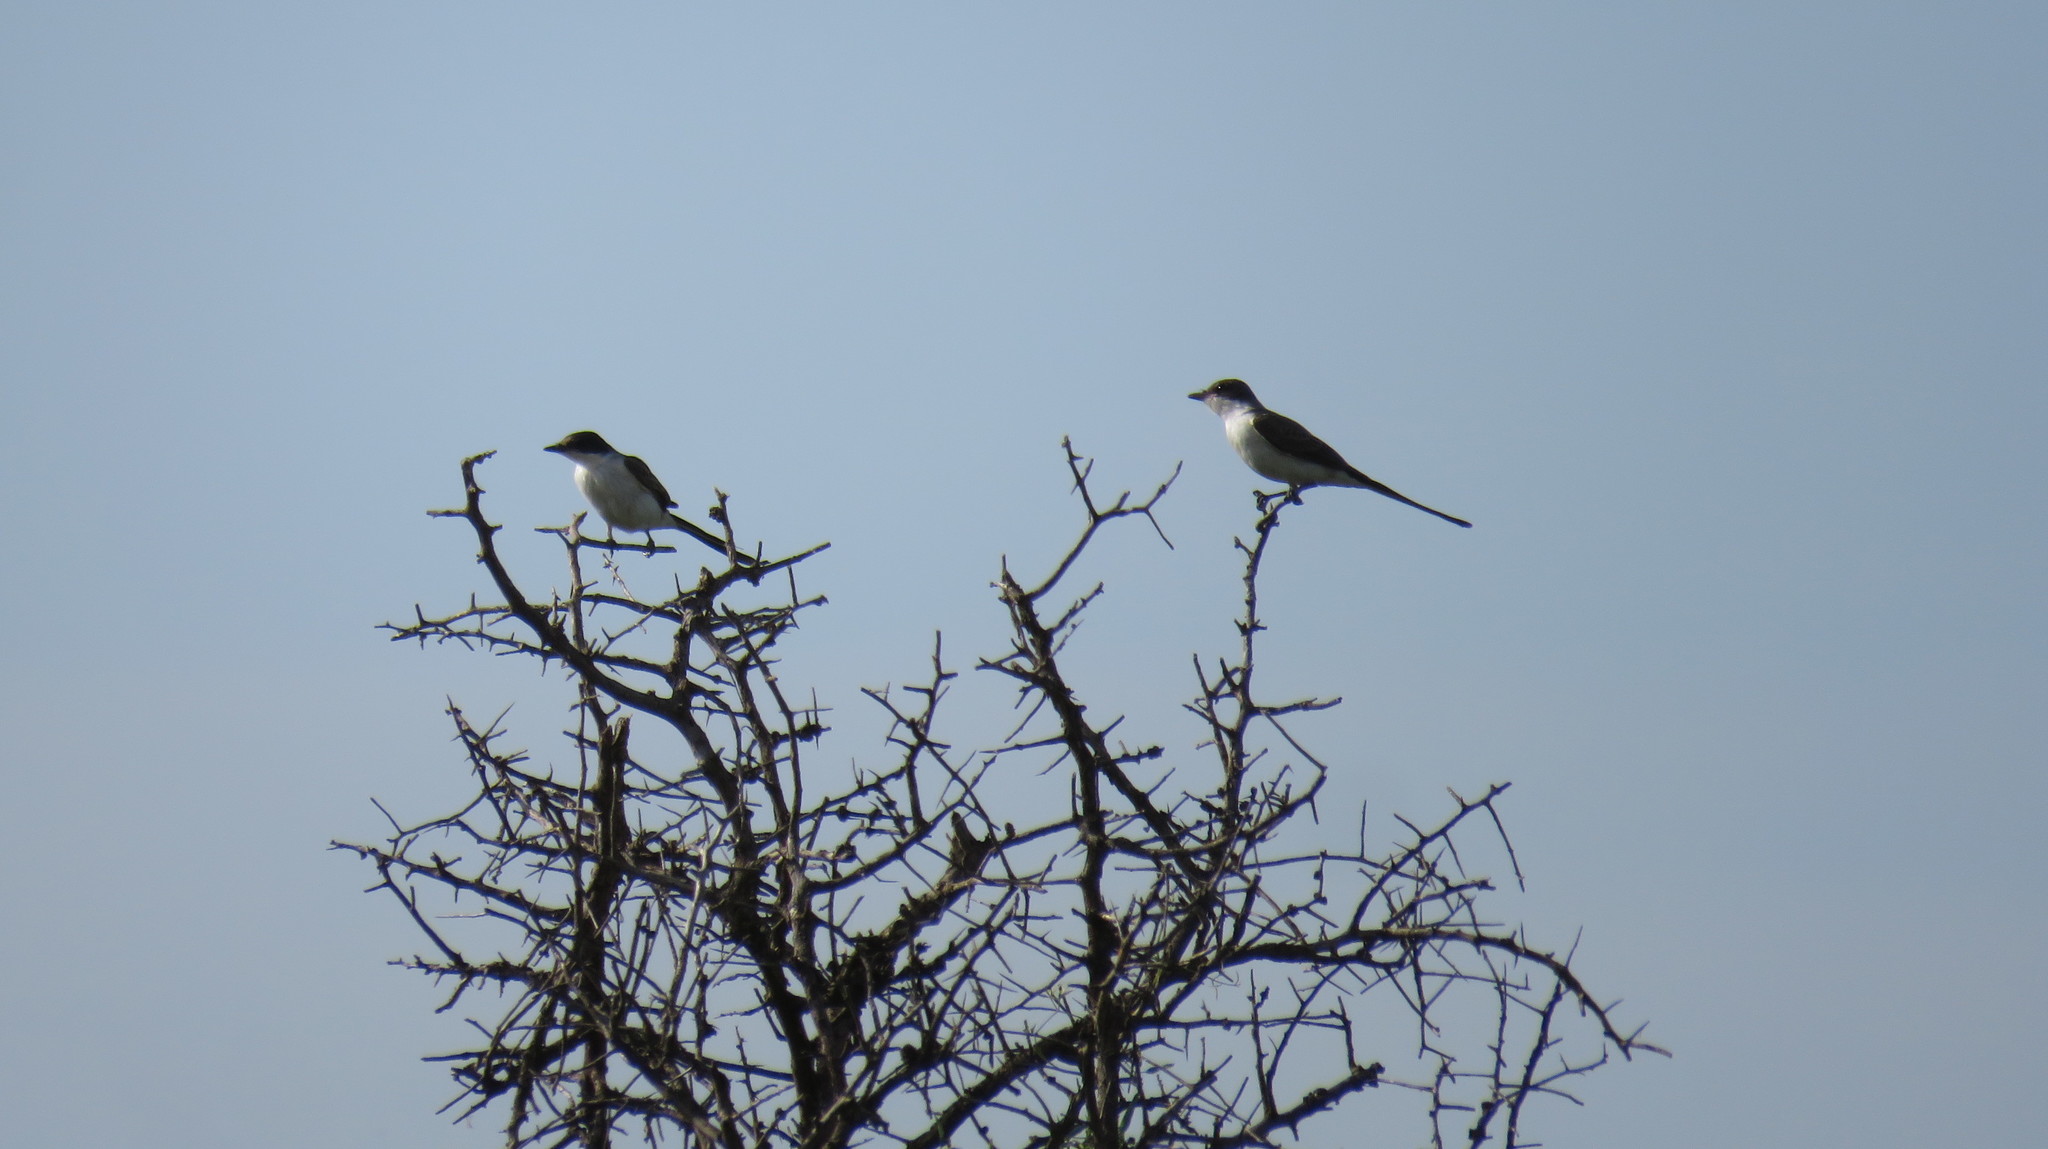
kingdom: Animalia
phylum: Chordata
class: Aves
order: Passeriformes
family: Tyrannidae
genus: Tyrannus
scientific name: Tyrannus savana
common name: Fork-tailed flycatcher
